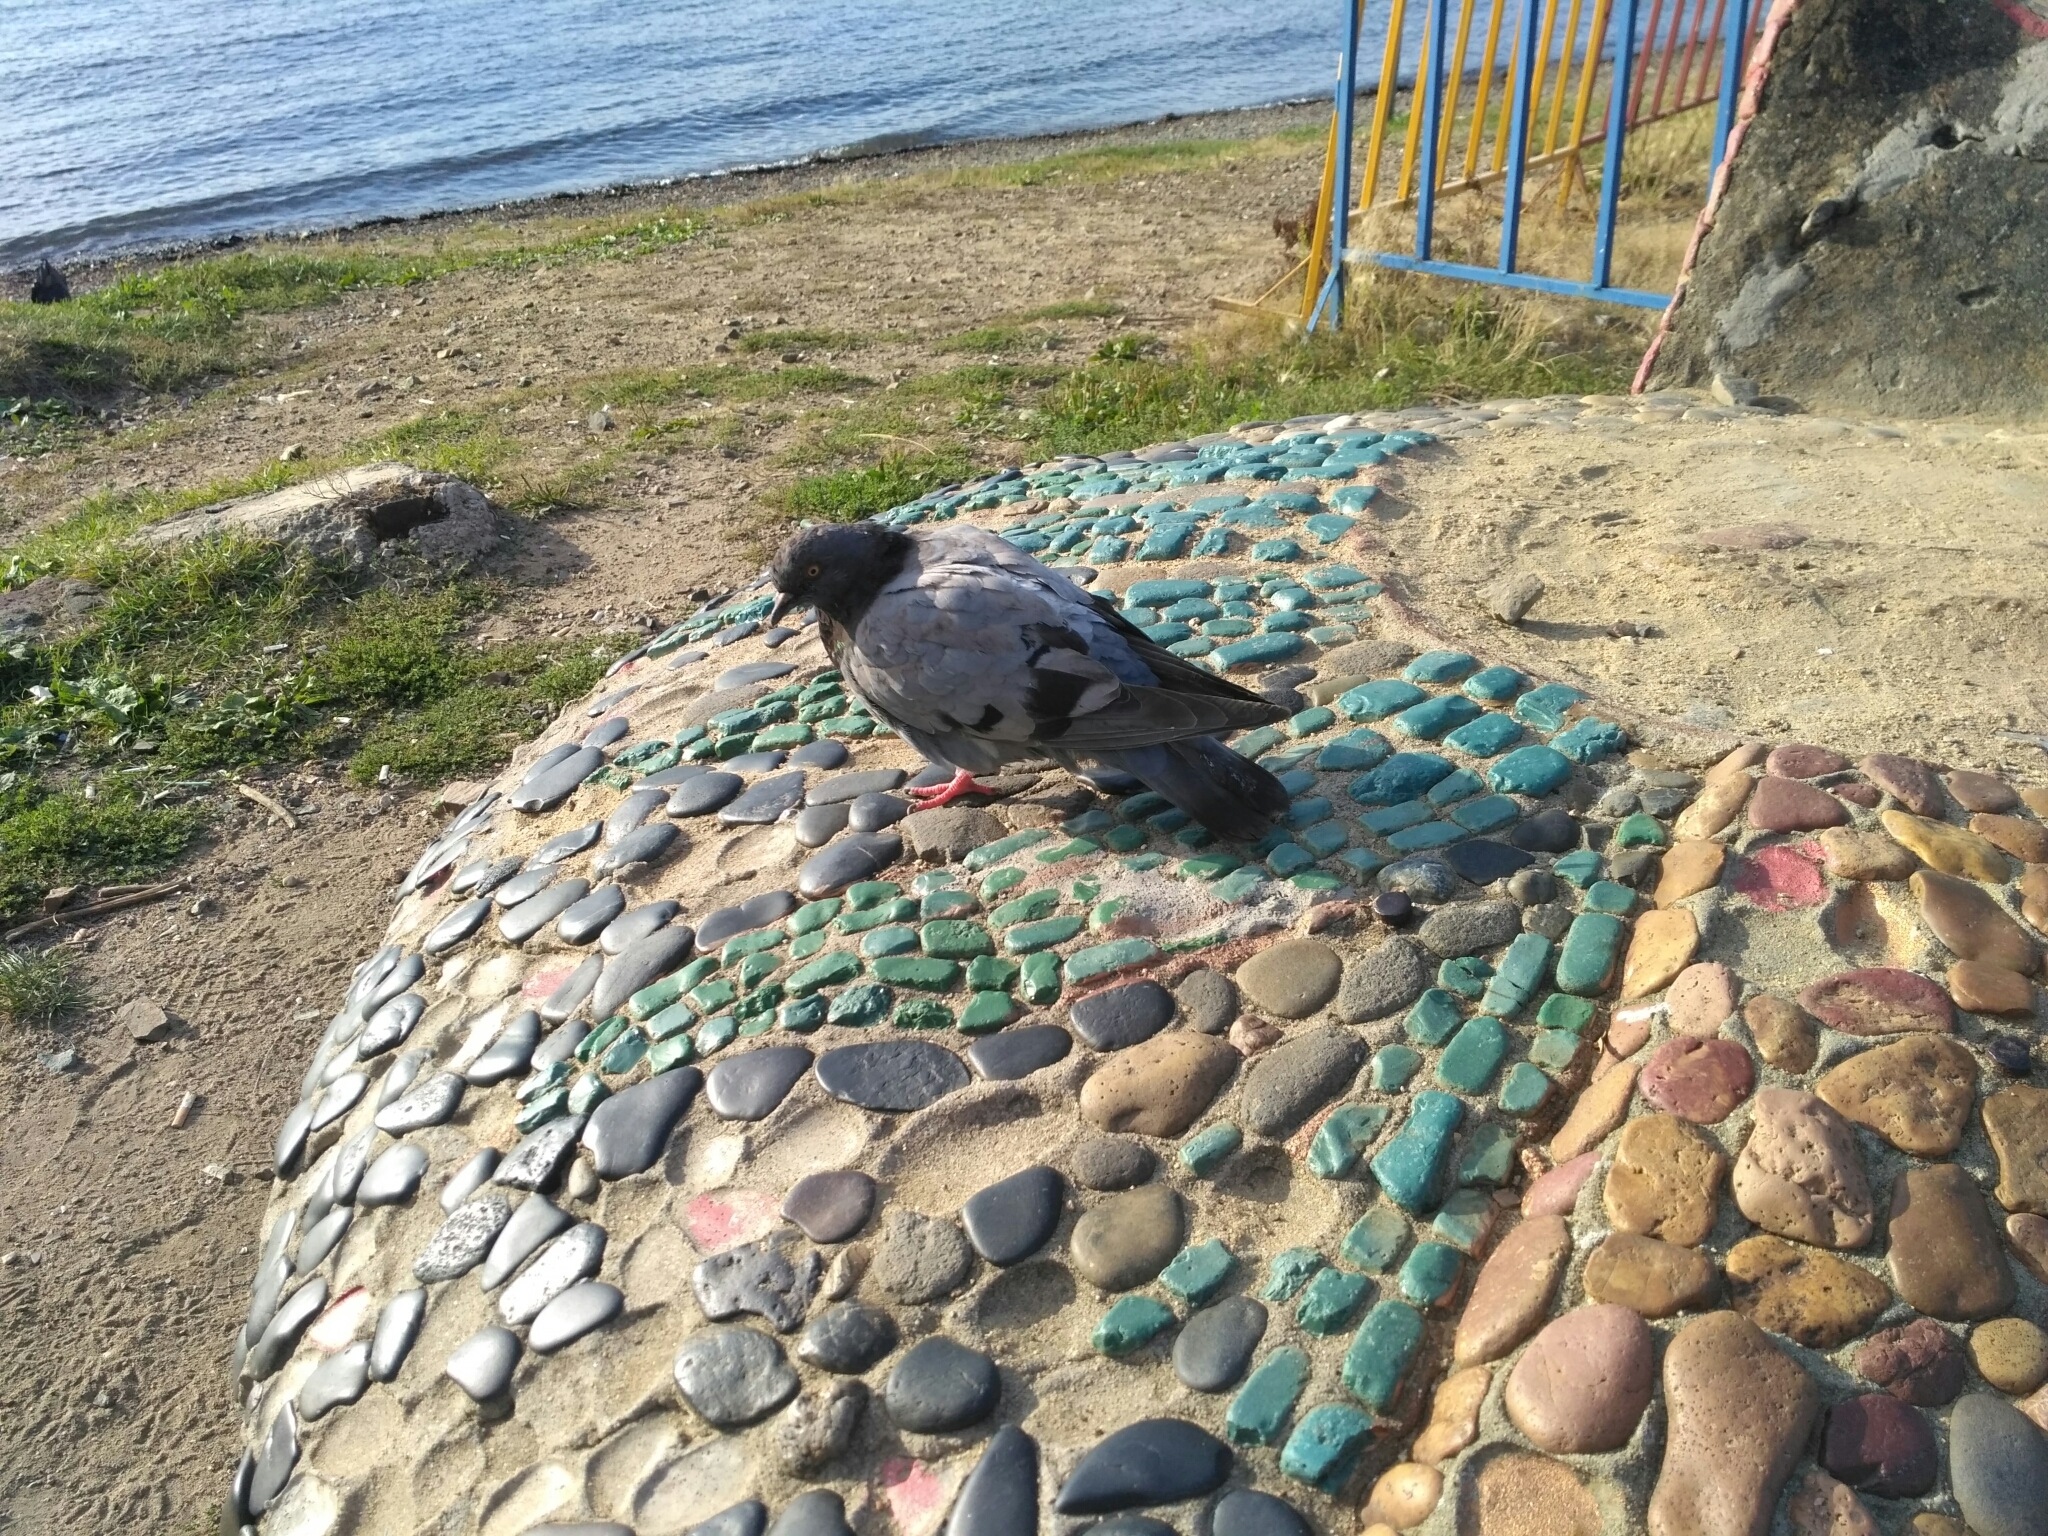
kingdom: Animalia
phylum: Chordata
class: Aves
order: Columbiformes
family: Columbidae
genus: Columba
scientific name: Columba livia
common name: Rock pigeon
